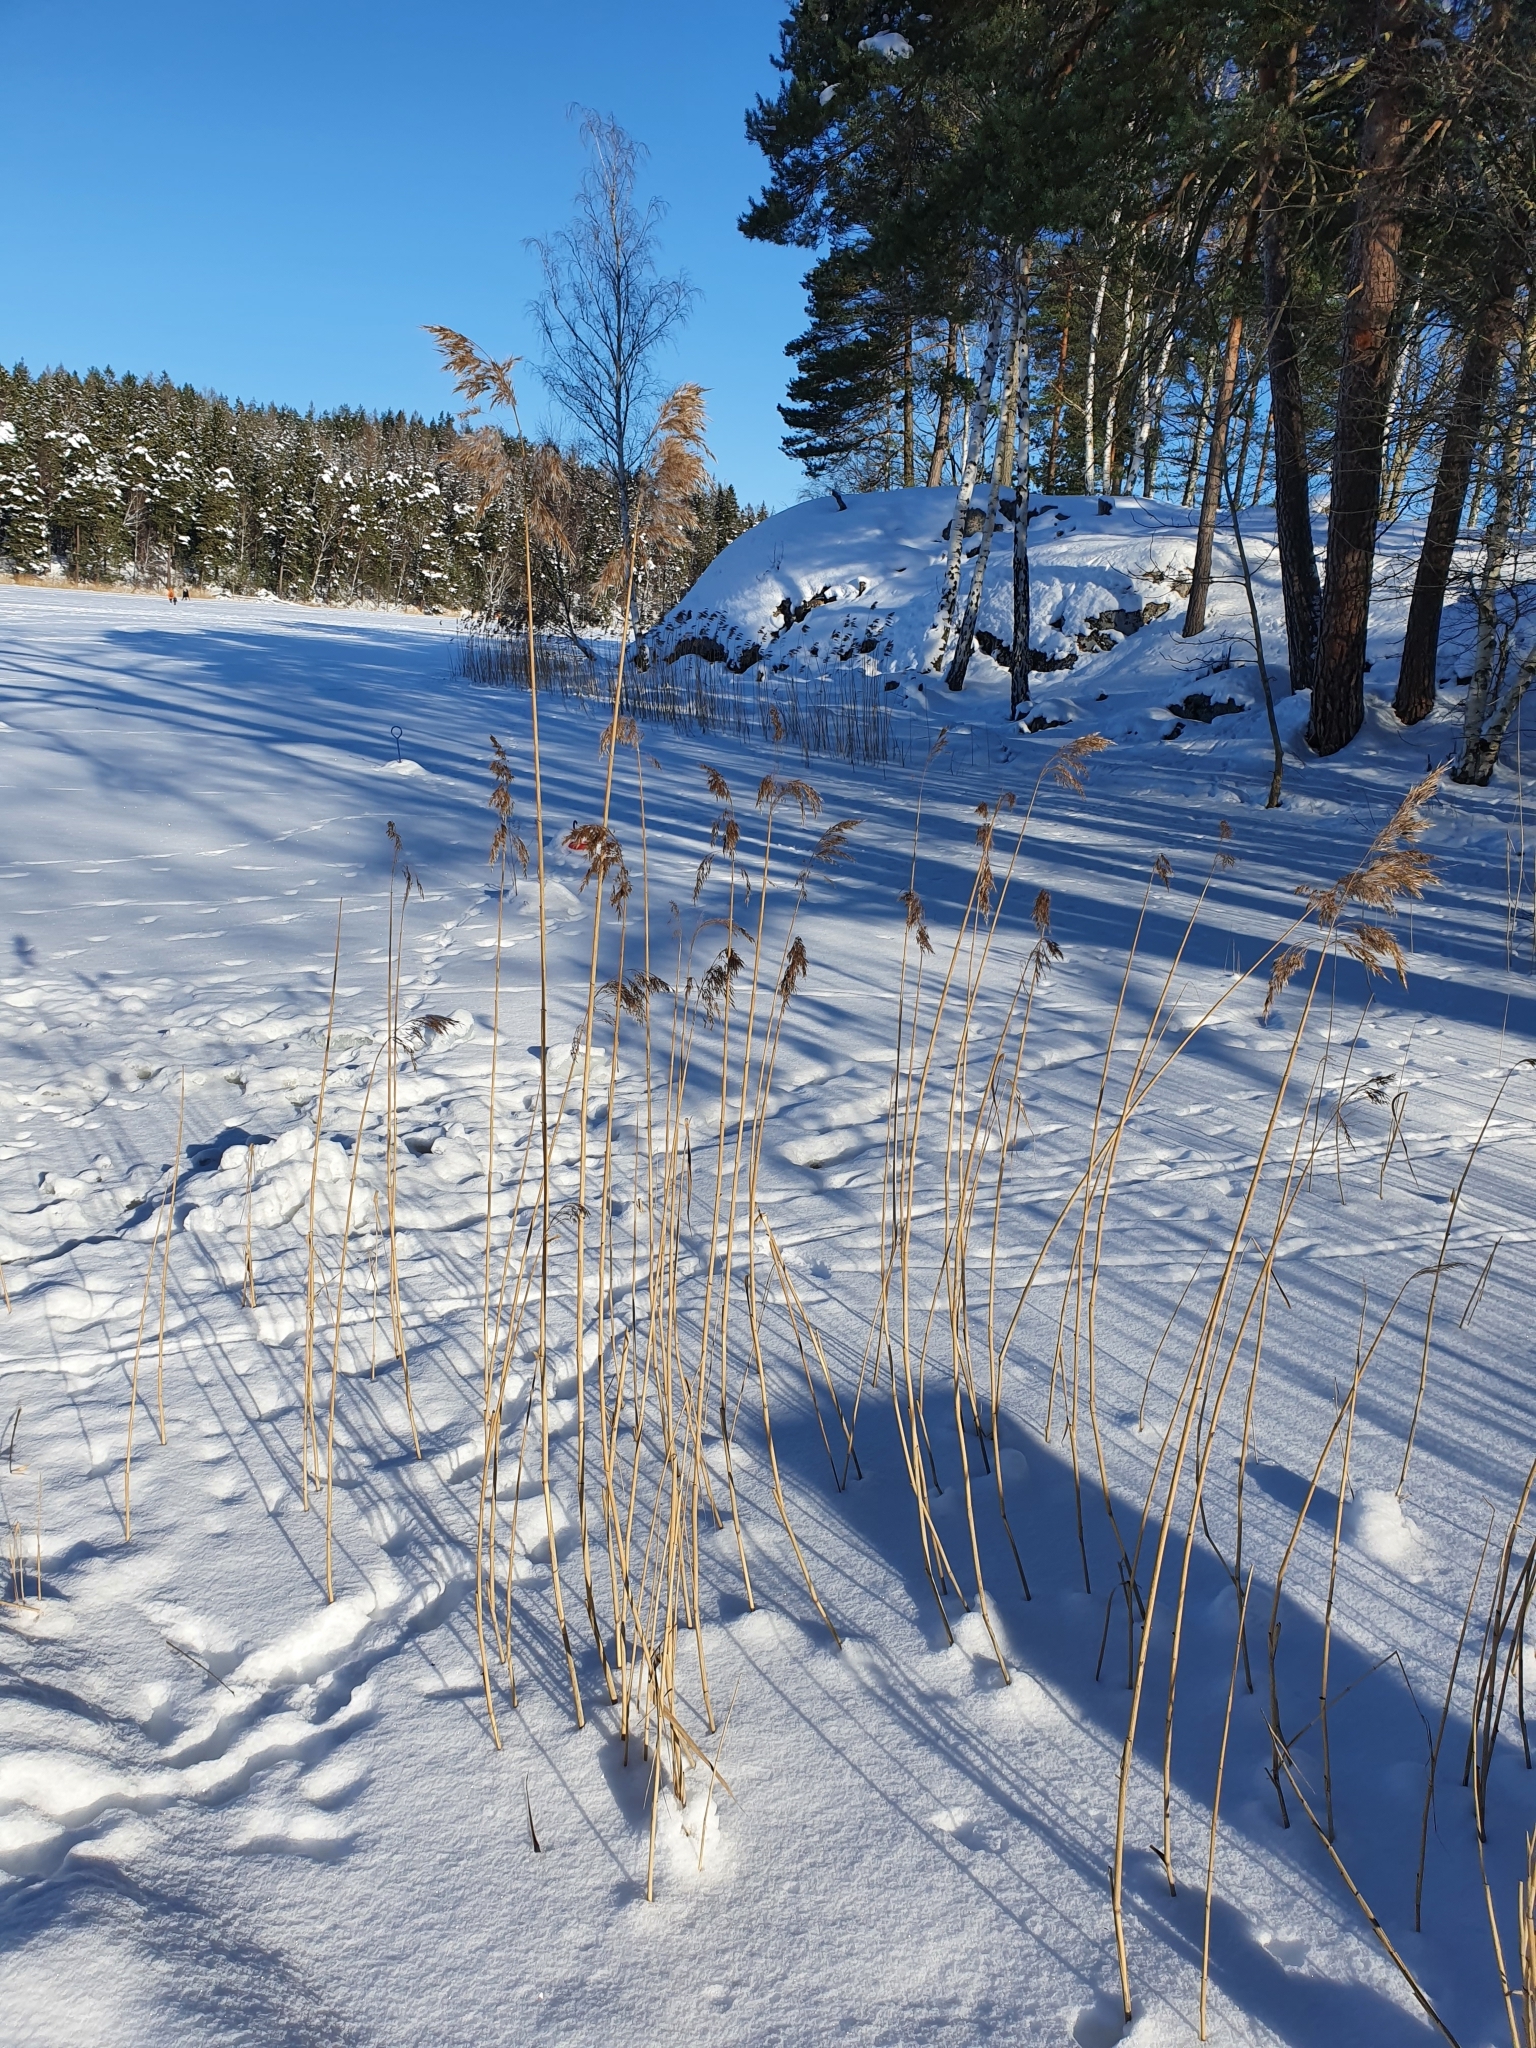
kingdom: Plantae
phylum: Tracheophyta
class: Liliopsida
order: Poales
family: Poaceae
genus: Phragmites
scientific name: Phragmites australis
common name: Common reed
